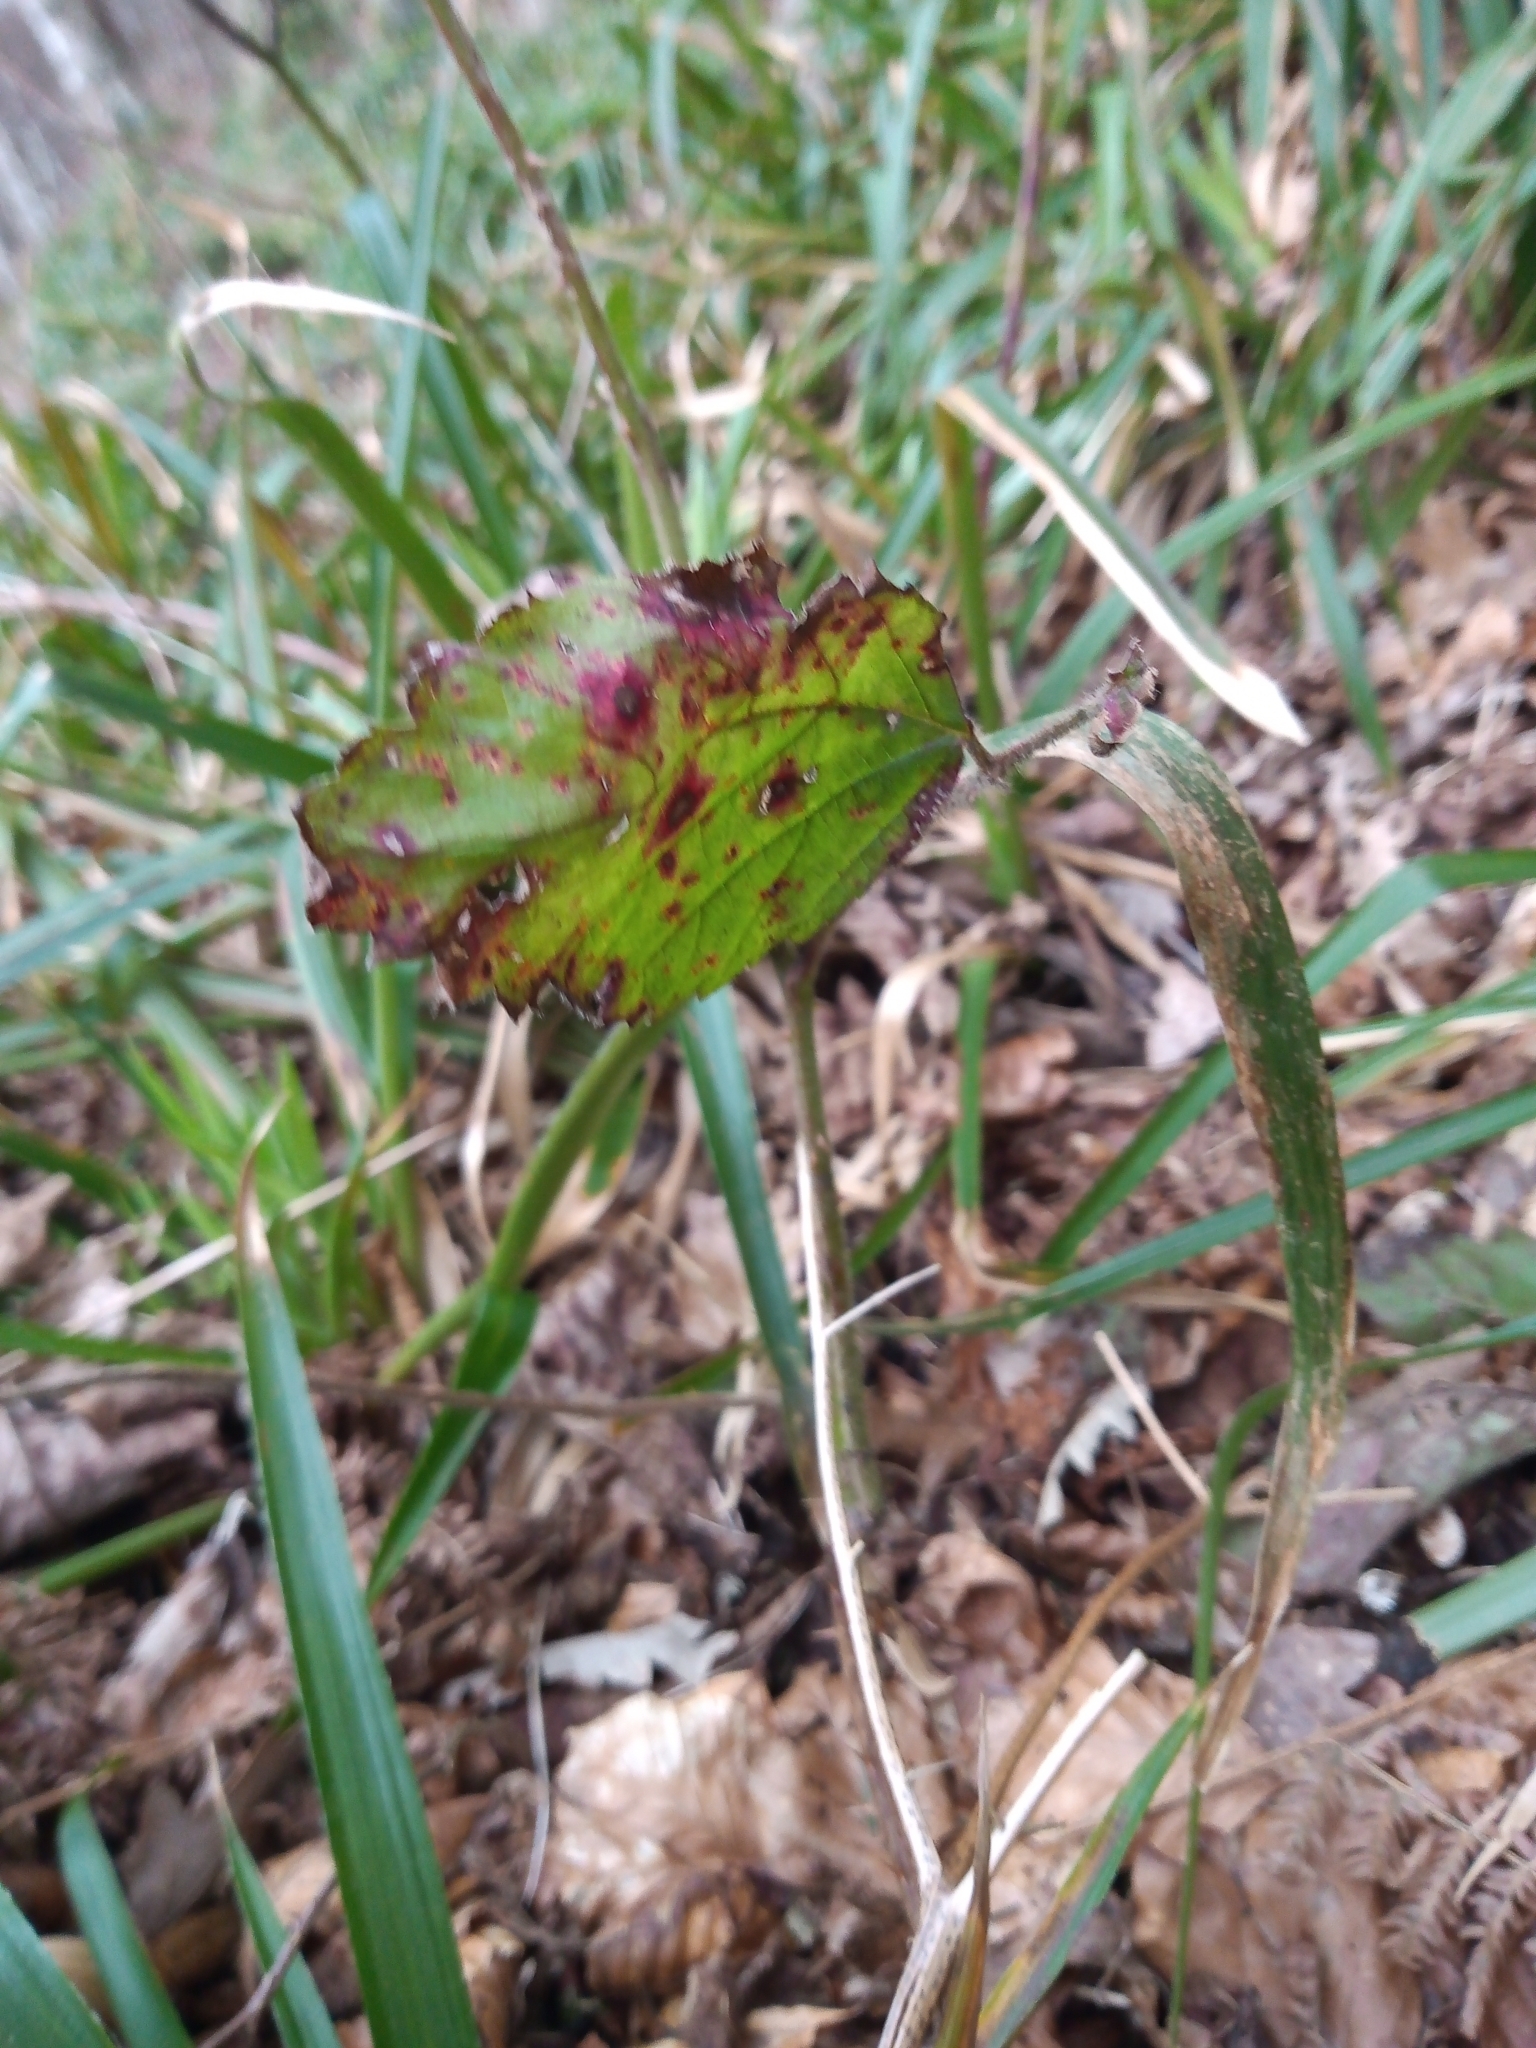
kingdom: Fungi
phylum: Basidiomycota
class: Pucciniomycetes
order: Pucciniales
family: Phragmidiaceae
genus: Phragmidium
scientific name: Phragmidium violaceum
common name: Violet bramble rust
